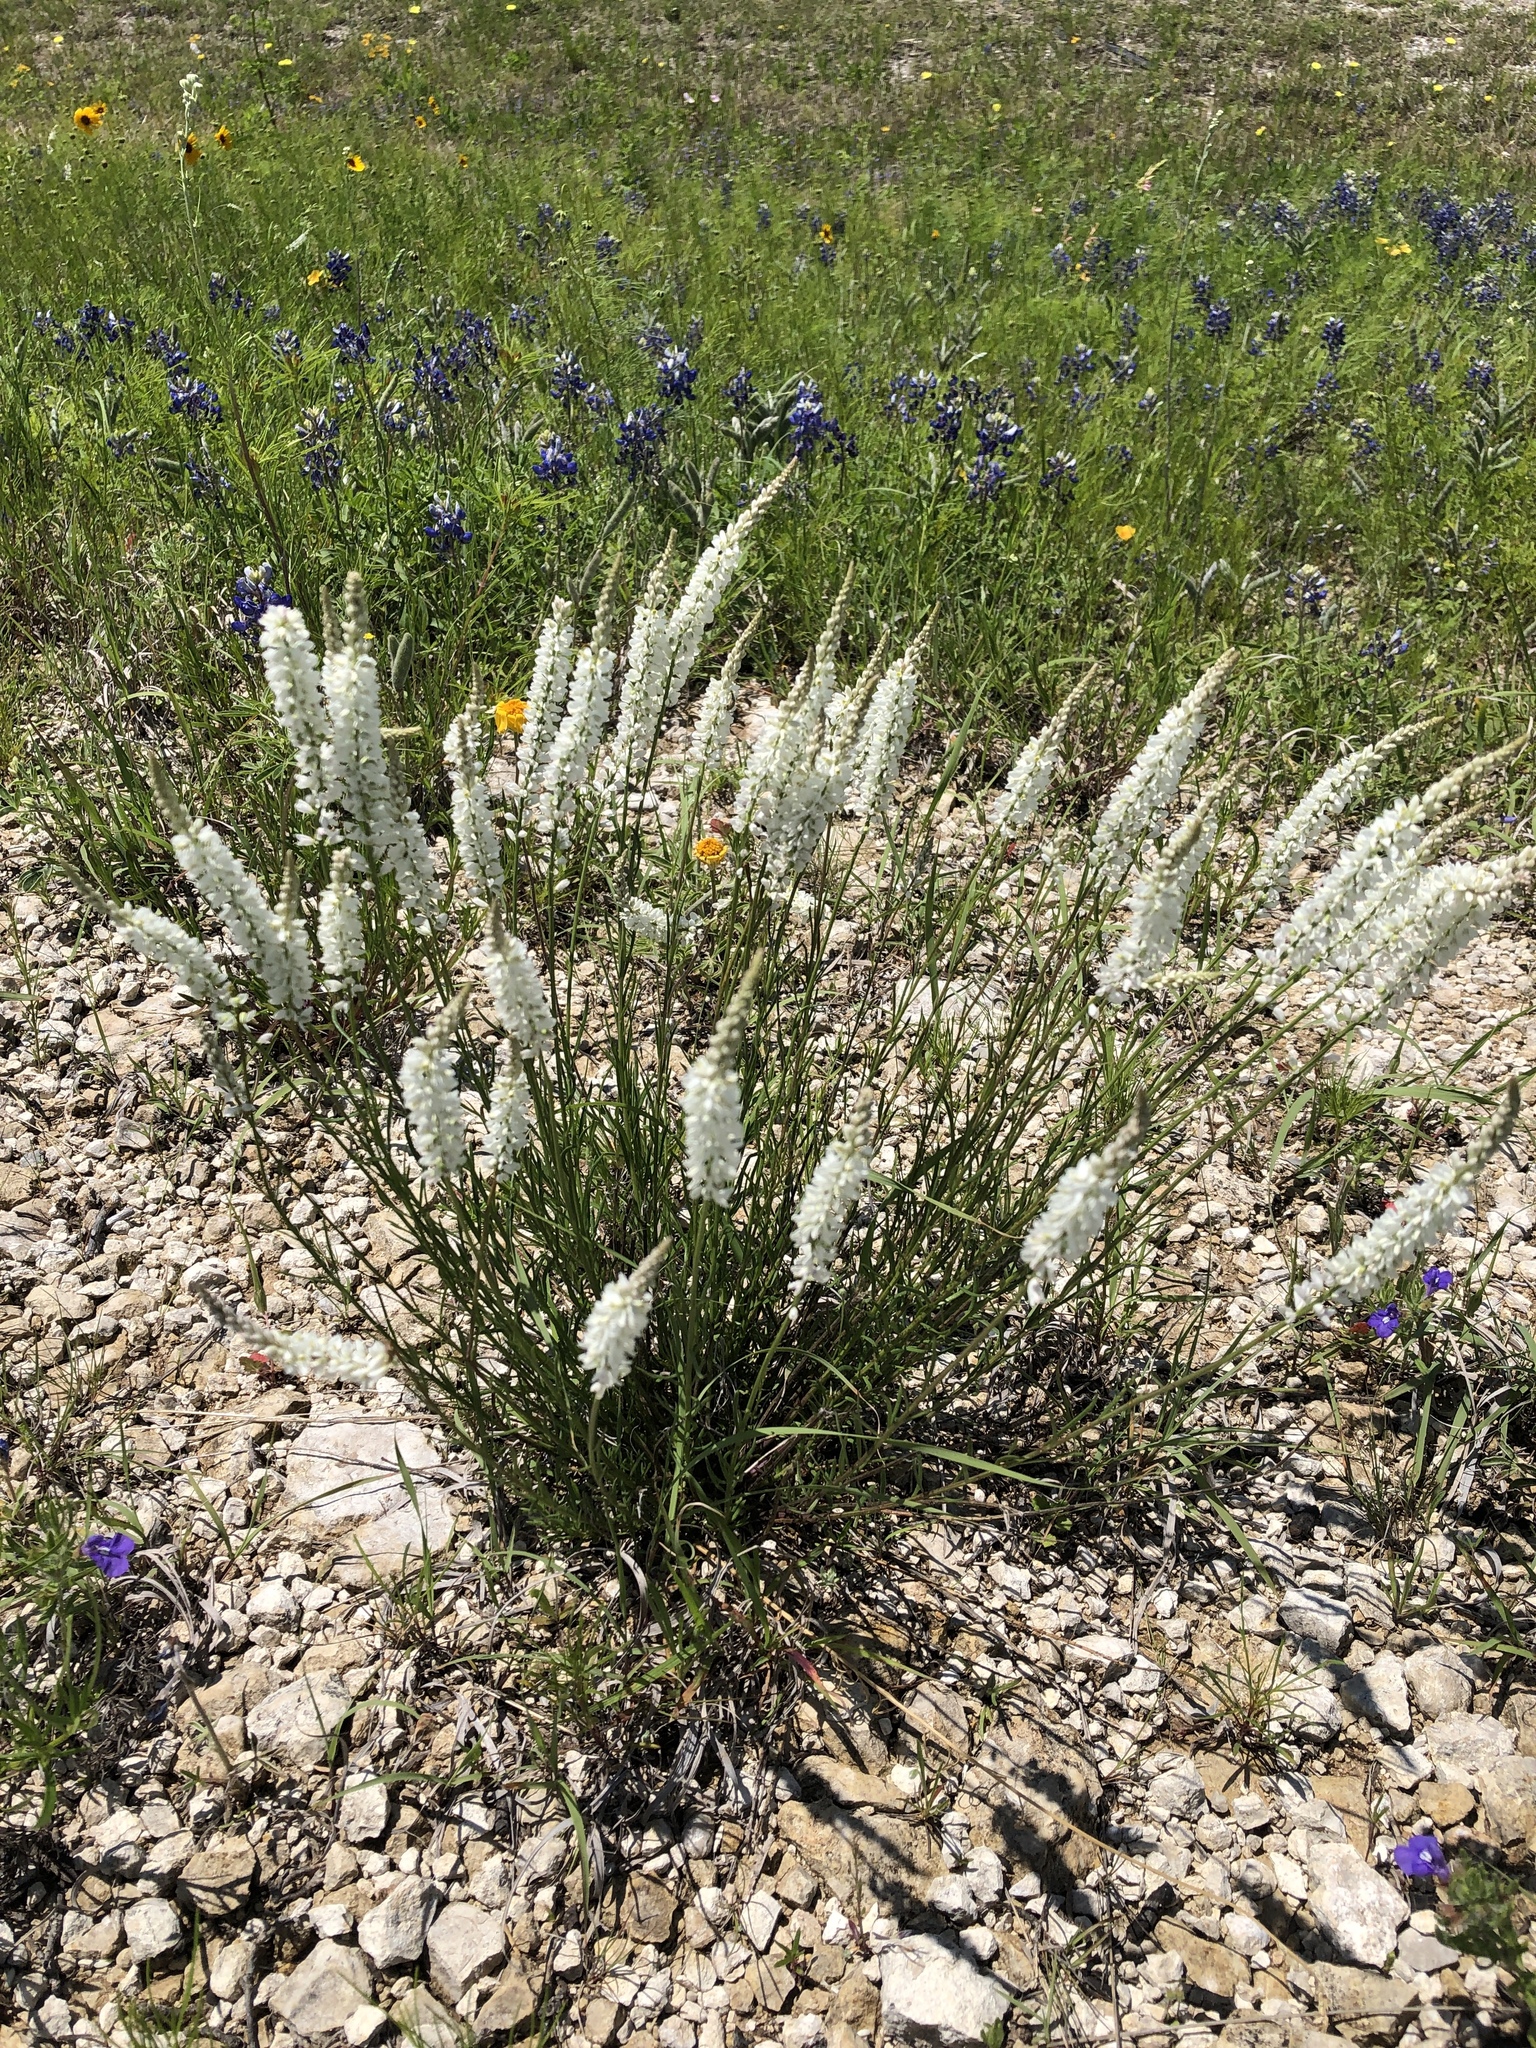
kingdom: Plantae
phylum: Tracheophyta
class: Magnoliopsida
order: Fabales
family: Polygalaceae
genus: Polygala
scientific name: Polygala alba
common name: White milkwort
